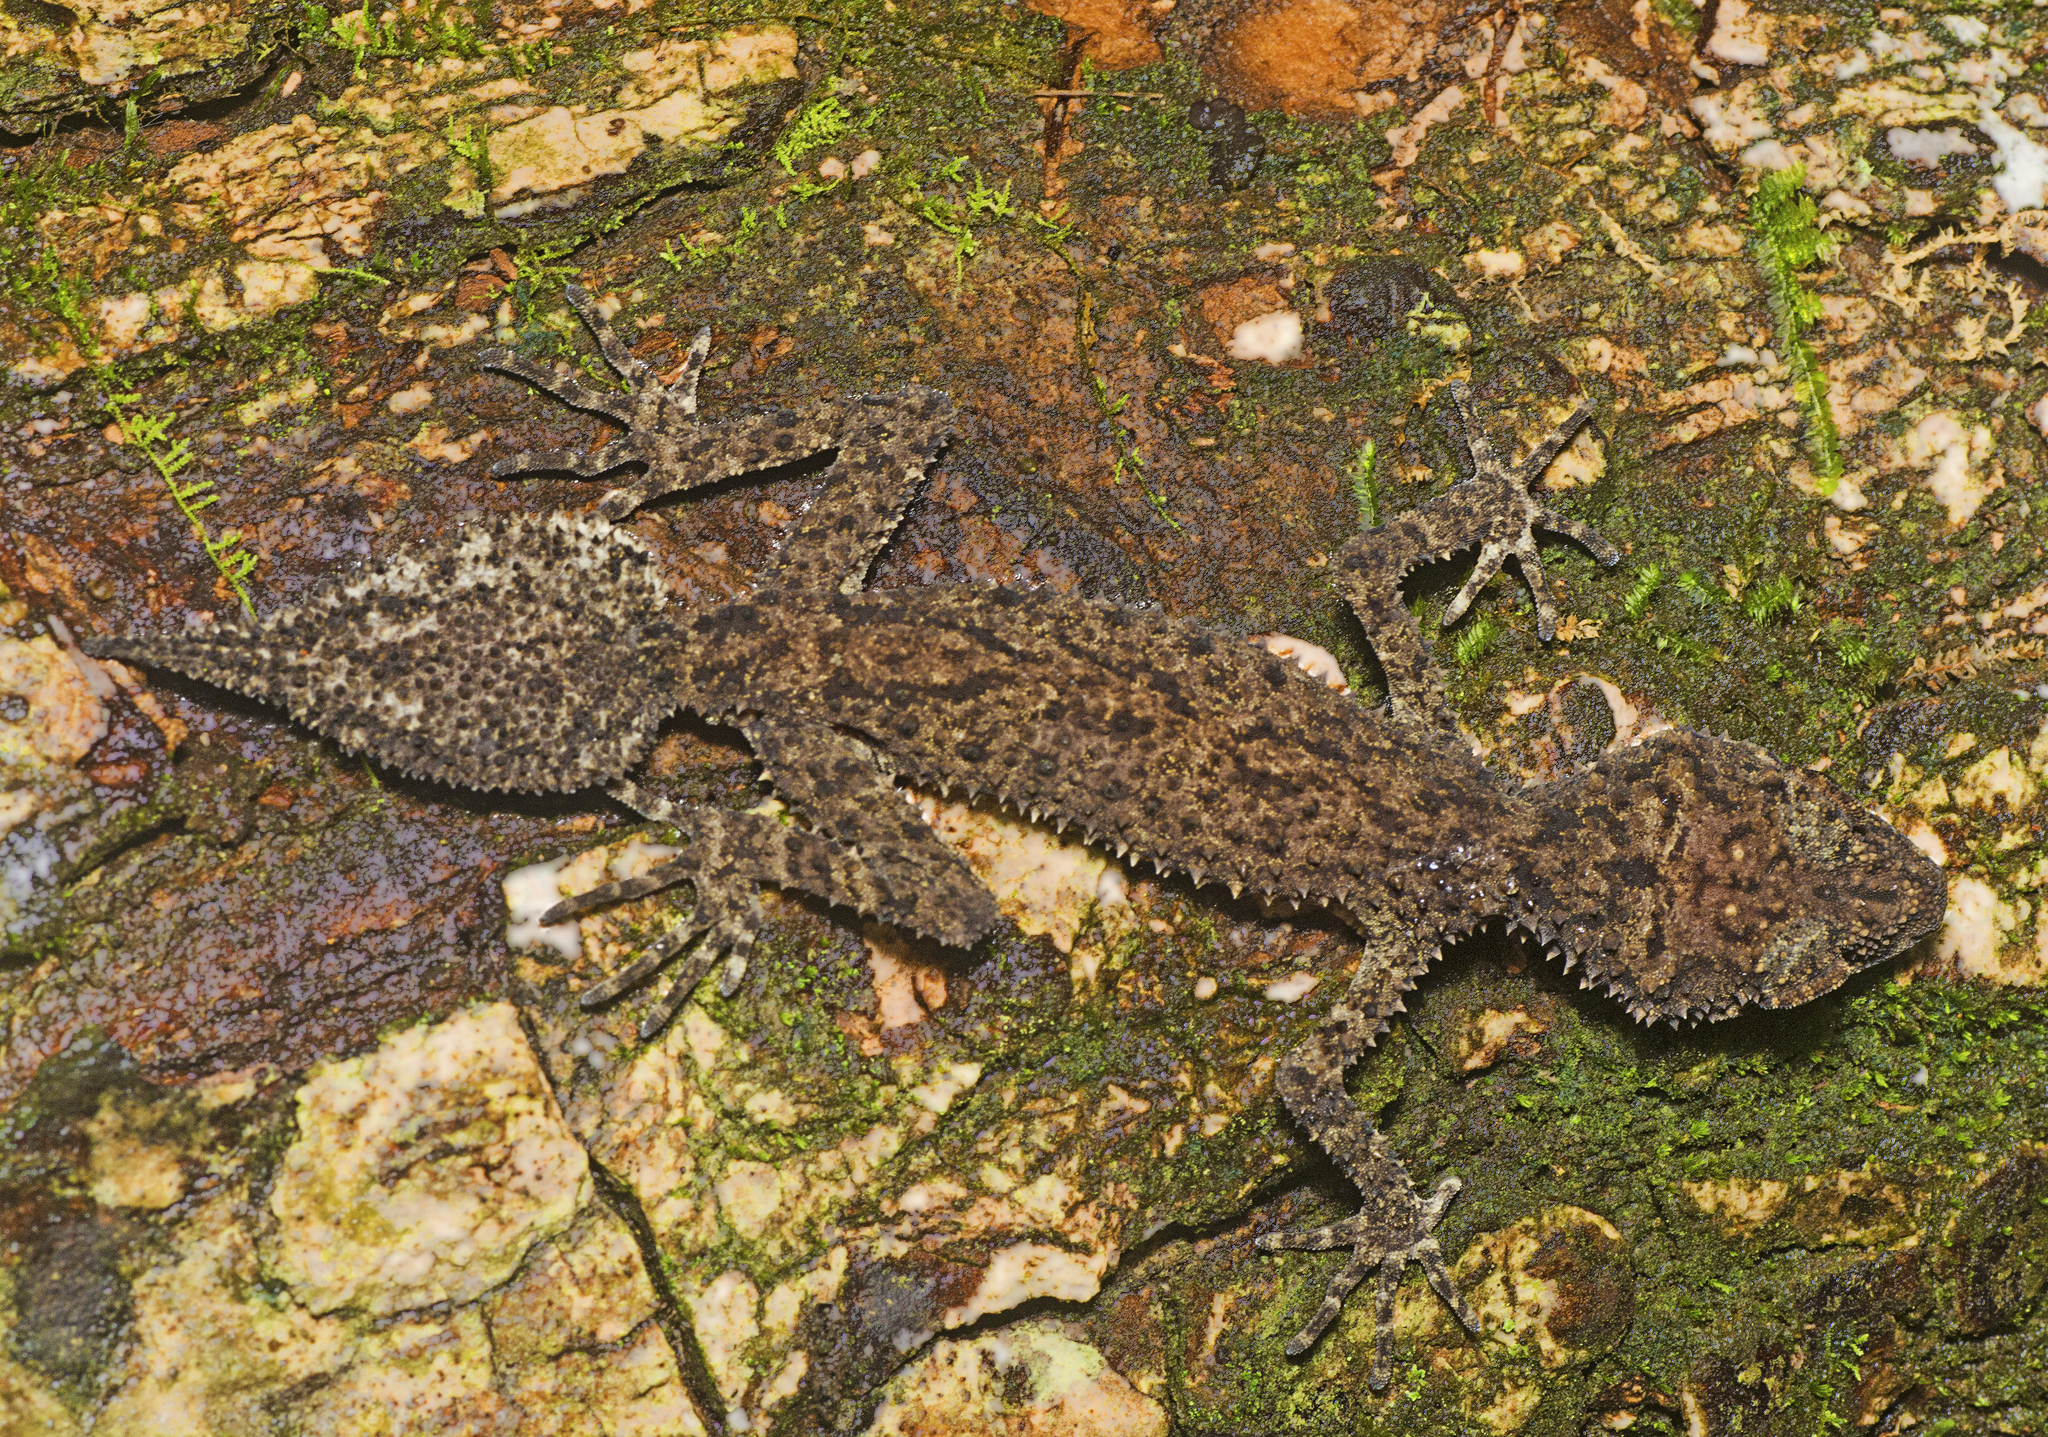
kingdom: Animalia
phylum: Chordata
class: Squamata
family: Carphodactylidae
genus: Phyllurus
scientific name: Phyllurus nepthys
